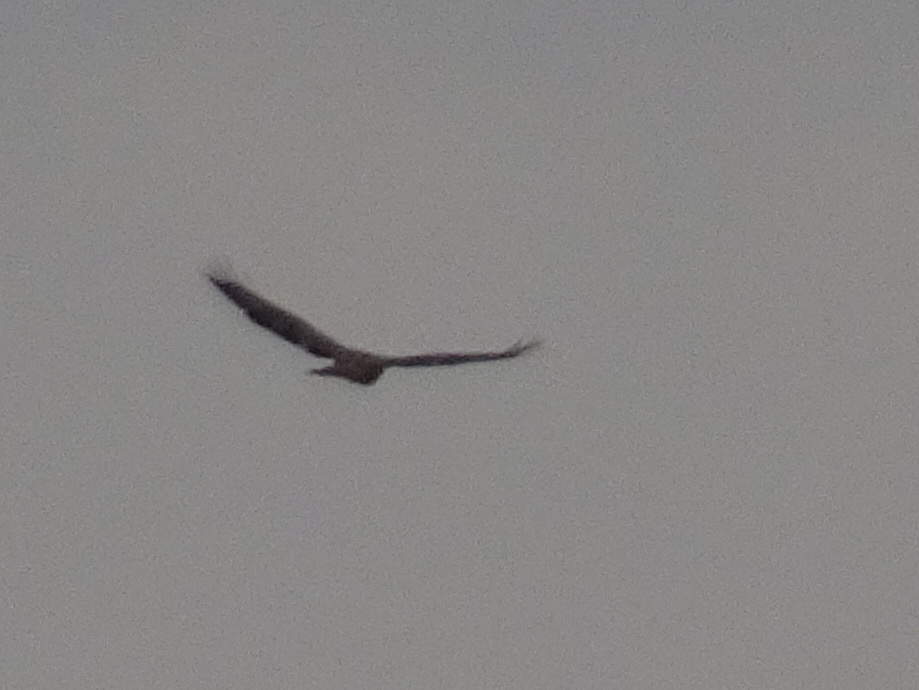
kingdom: Animalia
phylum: Chordata
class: Aves
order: Accipitriformes
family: Accipitridae
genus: Buteo
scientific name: Buteo jamaicensis
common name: Red-tailed hawk
